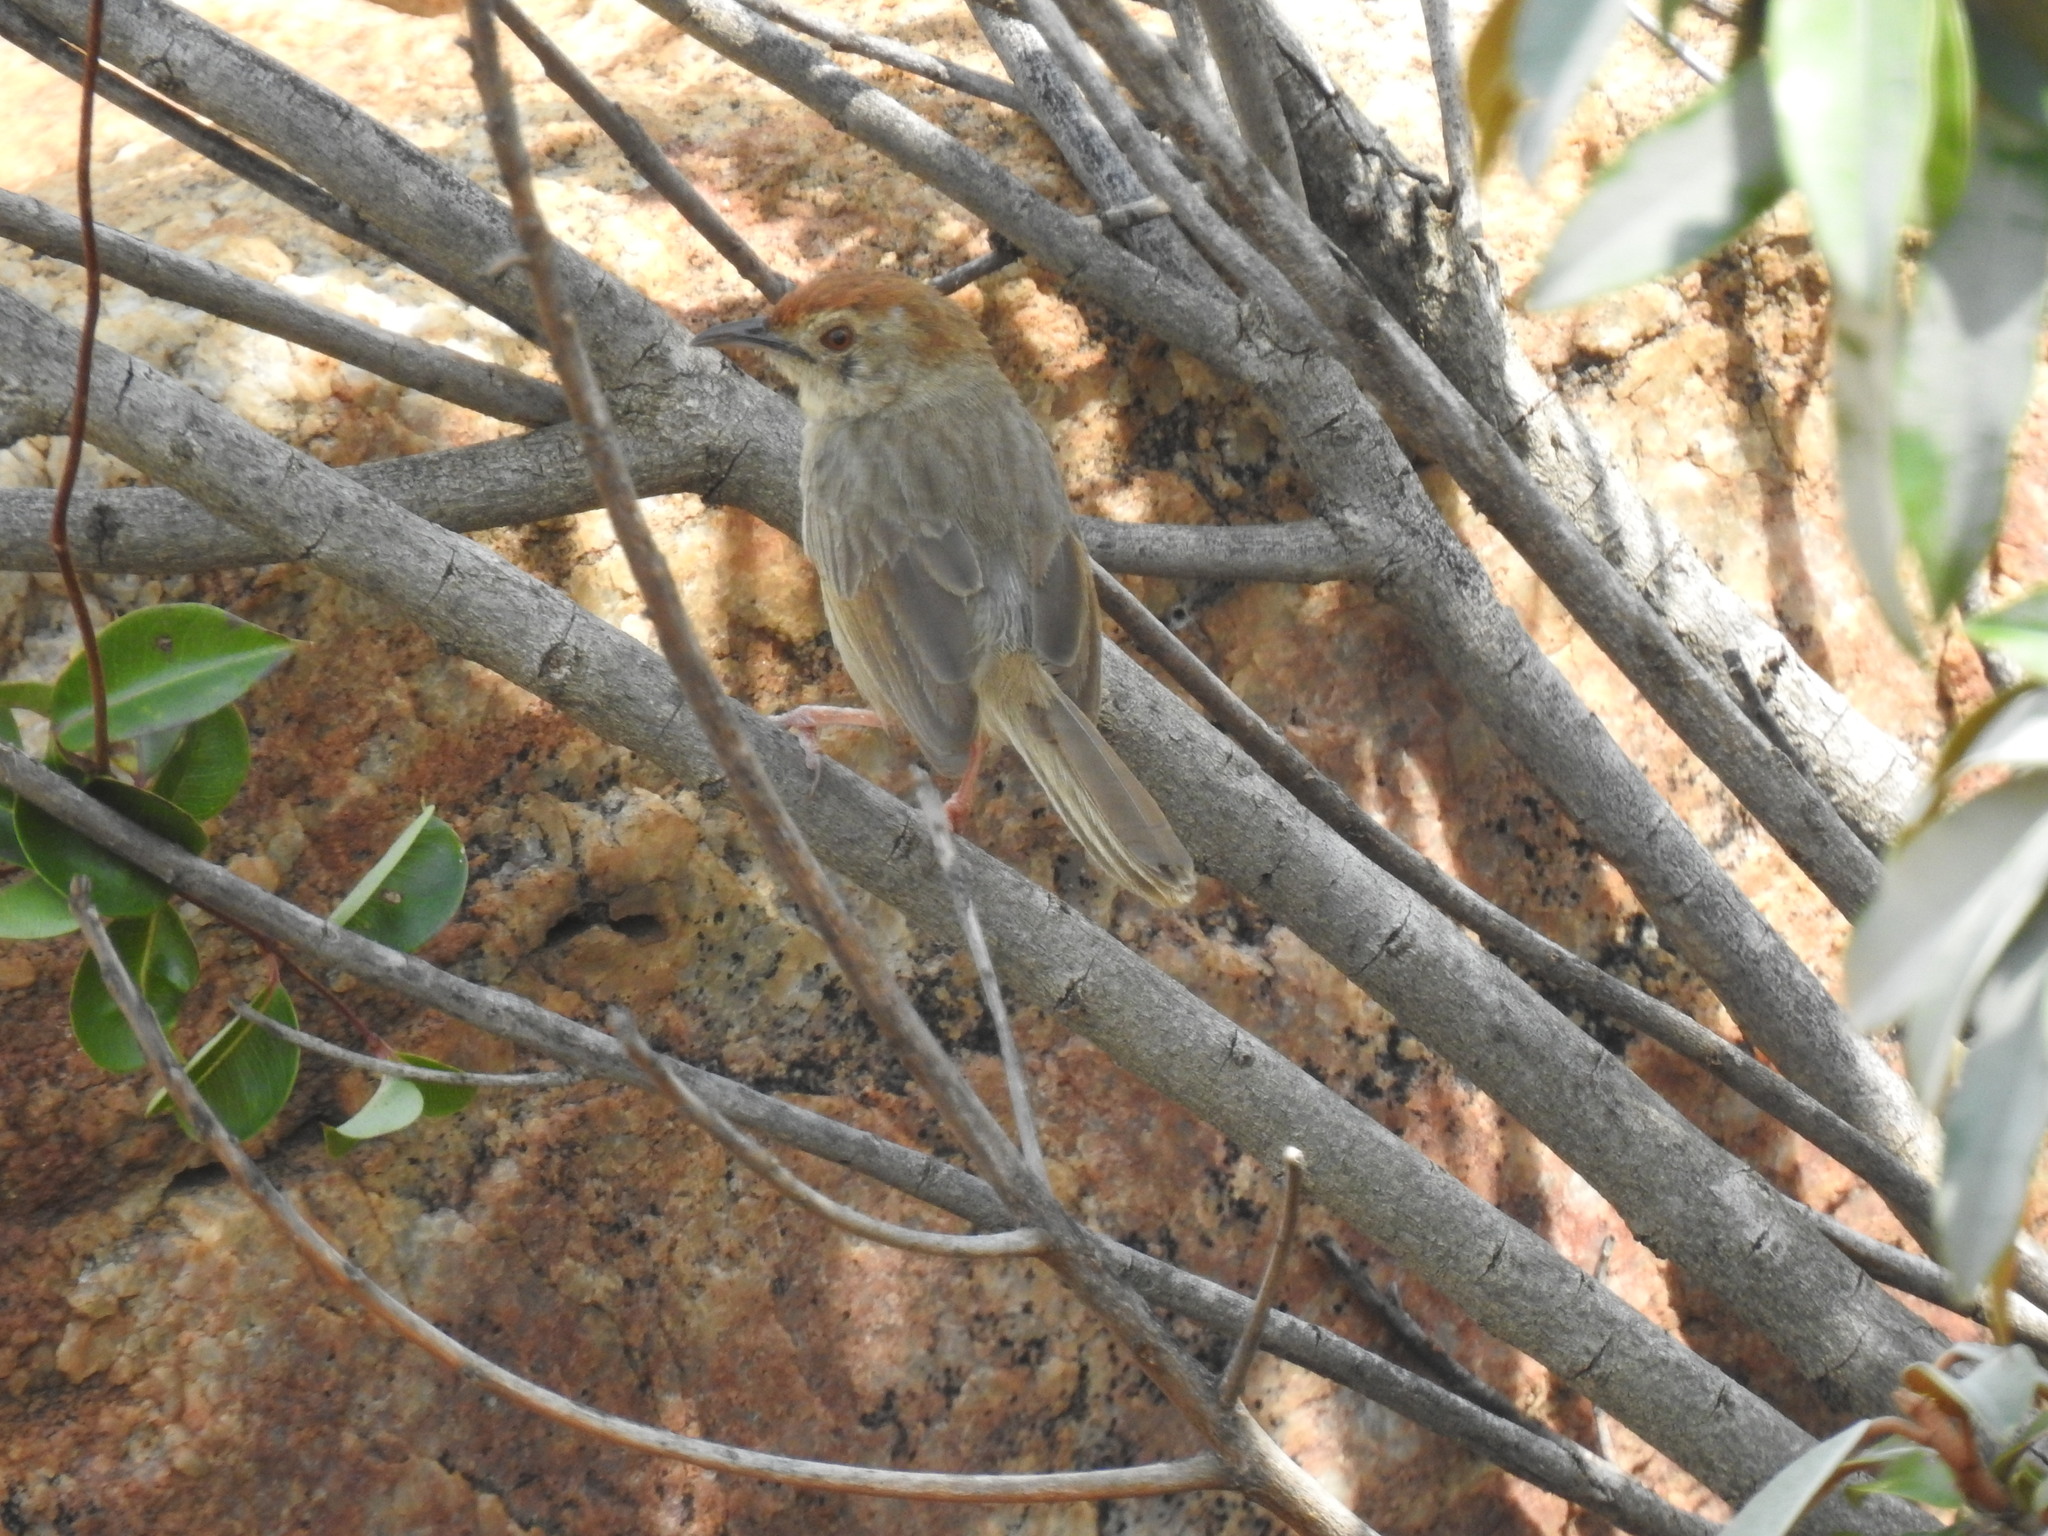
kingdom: Animalia
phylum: Chordata
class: Aves
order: Passeriformes
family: Cisticolidae
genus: Cisticola
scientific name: Cisticola aberrans
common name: Lazy cisticola
